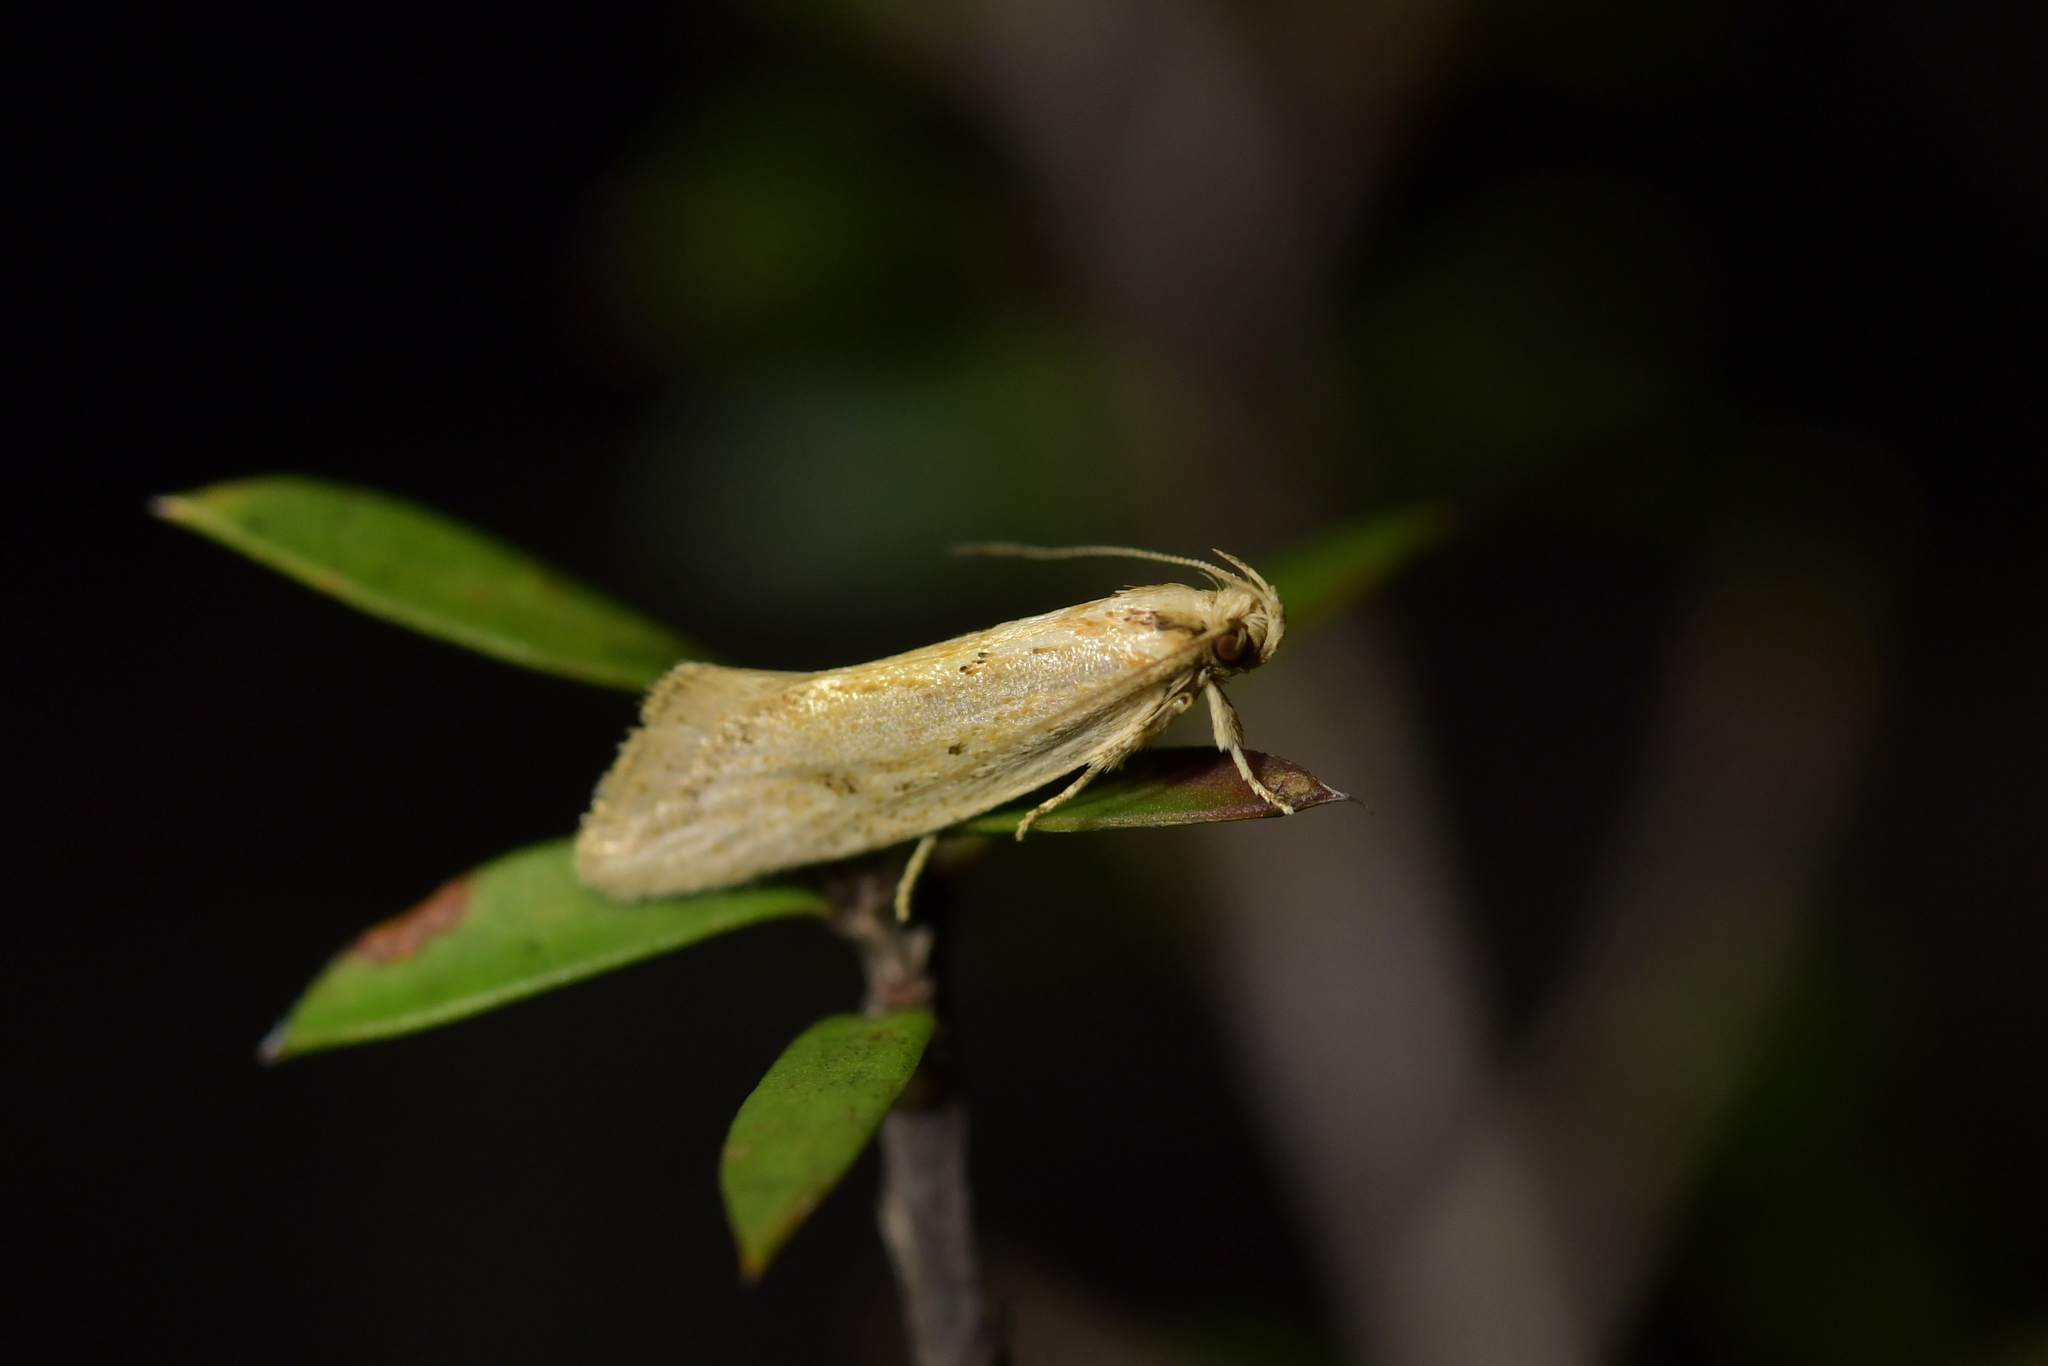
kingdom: Animalia
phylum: Arthropoda
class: Insecta
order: Lepidoptera
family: Oecophoridae
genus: Tingena
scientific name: Tingena chloradelpha
